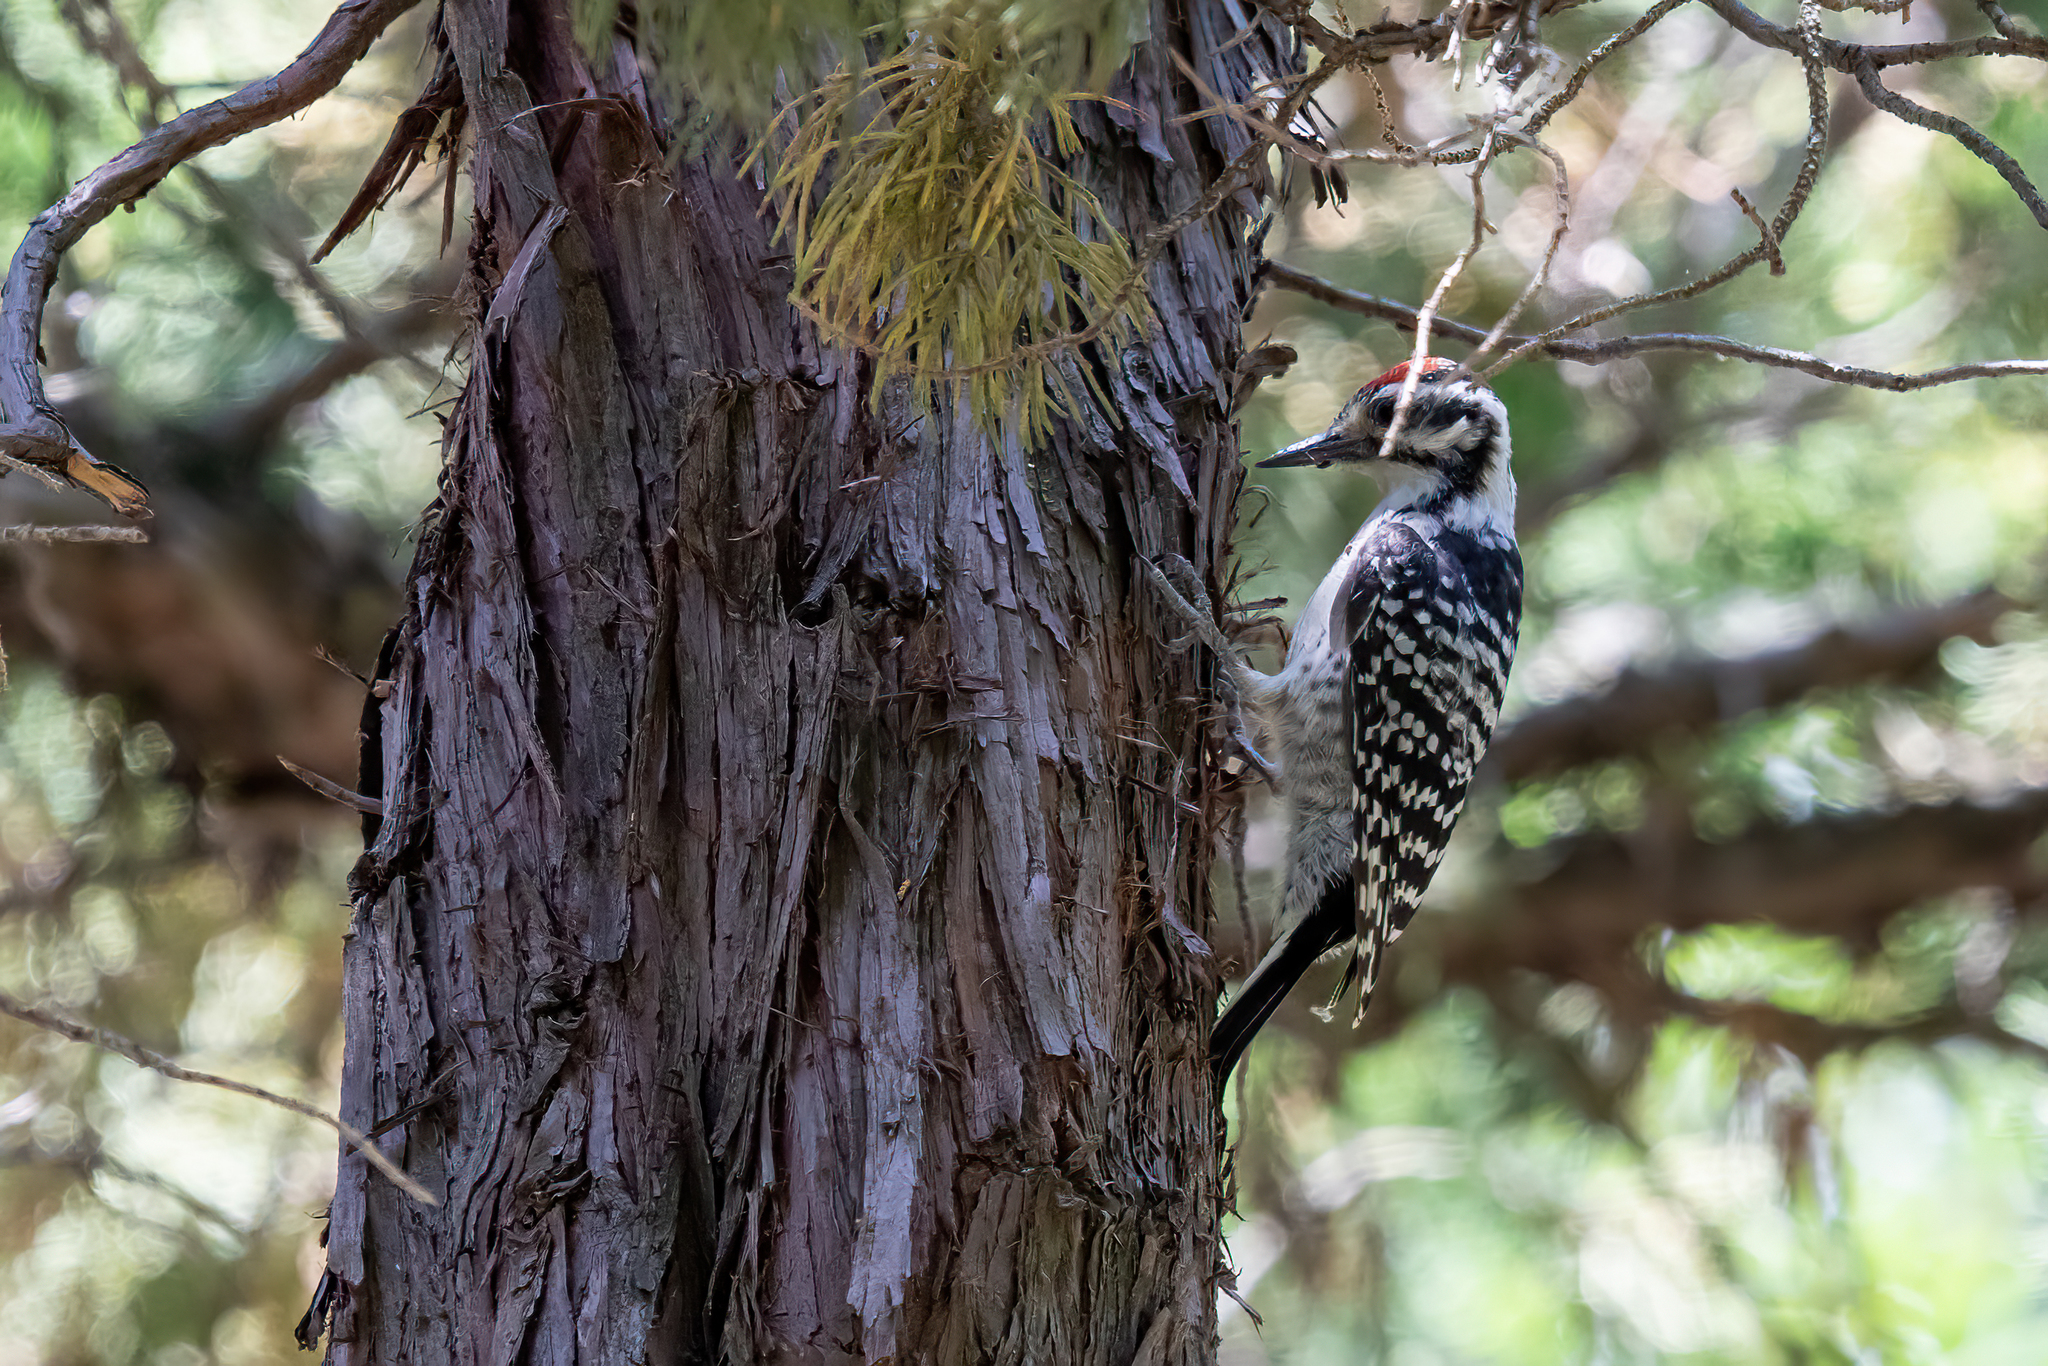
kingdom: Animalia
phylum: Chordata
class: Aves
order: Piciformes
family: Picidae
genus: Dryobates
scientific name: Dryobates nuttallii
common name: Nuttall's woodpecker
